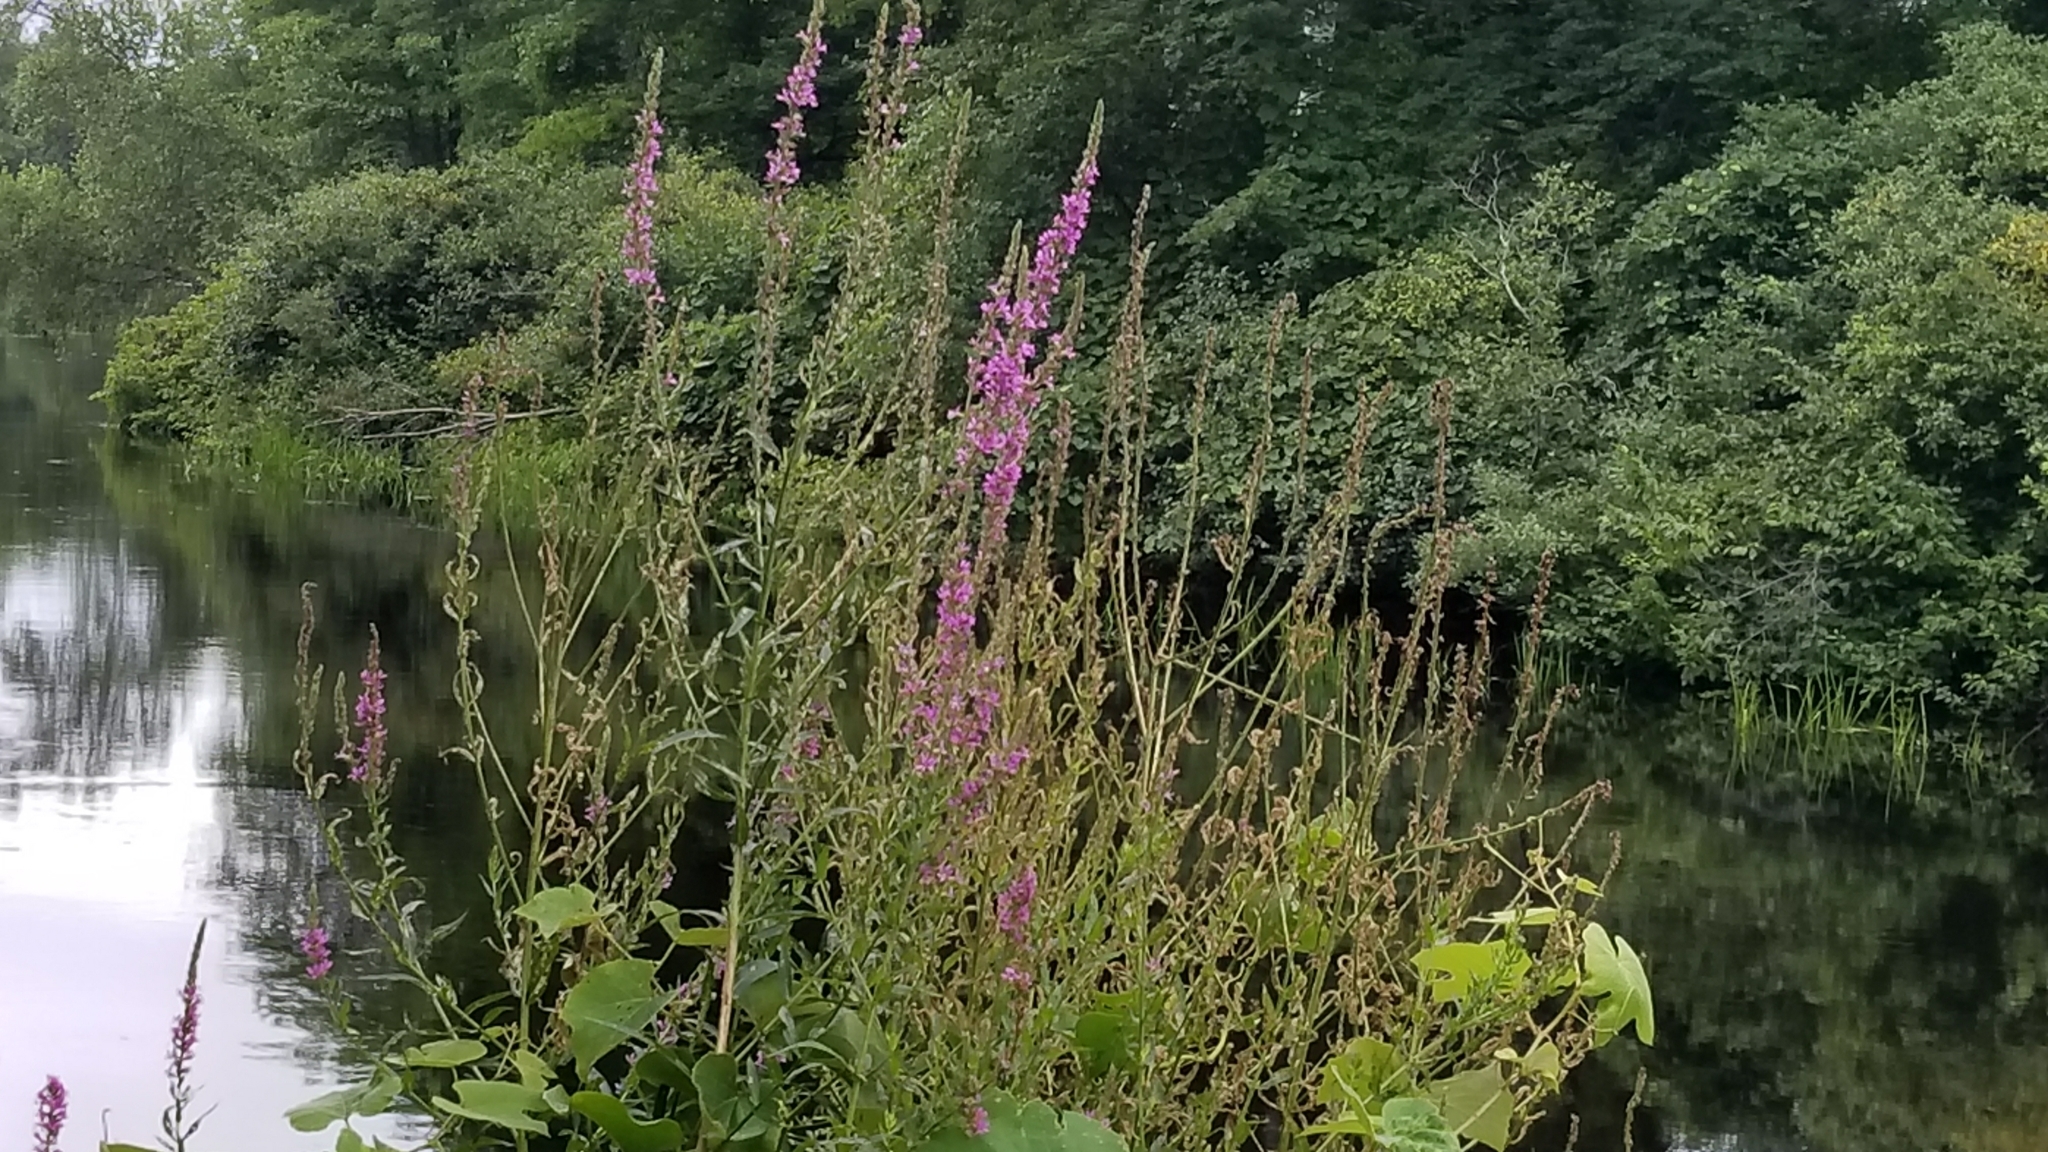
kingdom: Plantae
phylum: Tracheophyta
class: Magnoliopsida
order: Myrtales
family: Lythraceae
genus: Lythrum
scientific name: Lythrum salicaria
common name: Purple loosestrife
